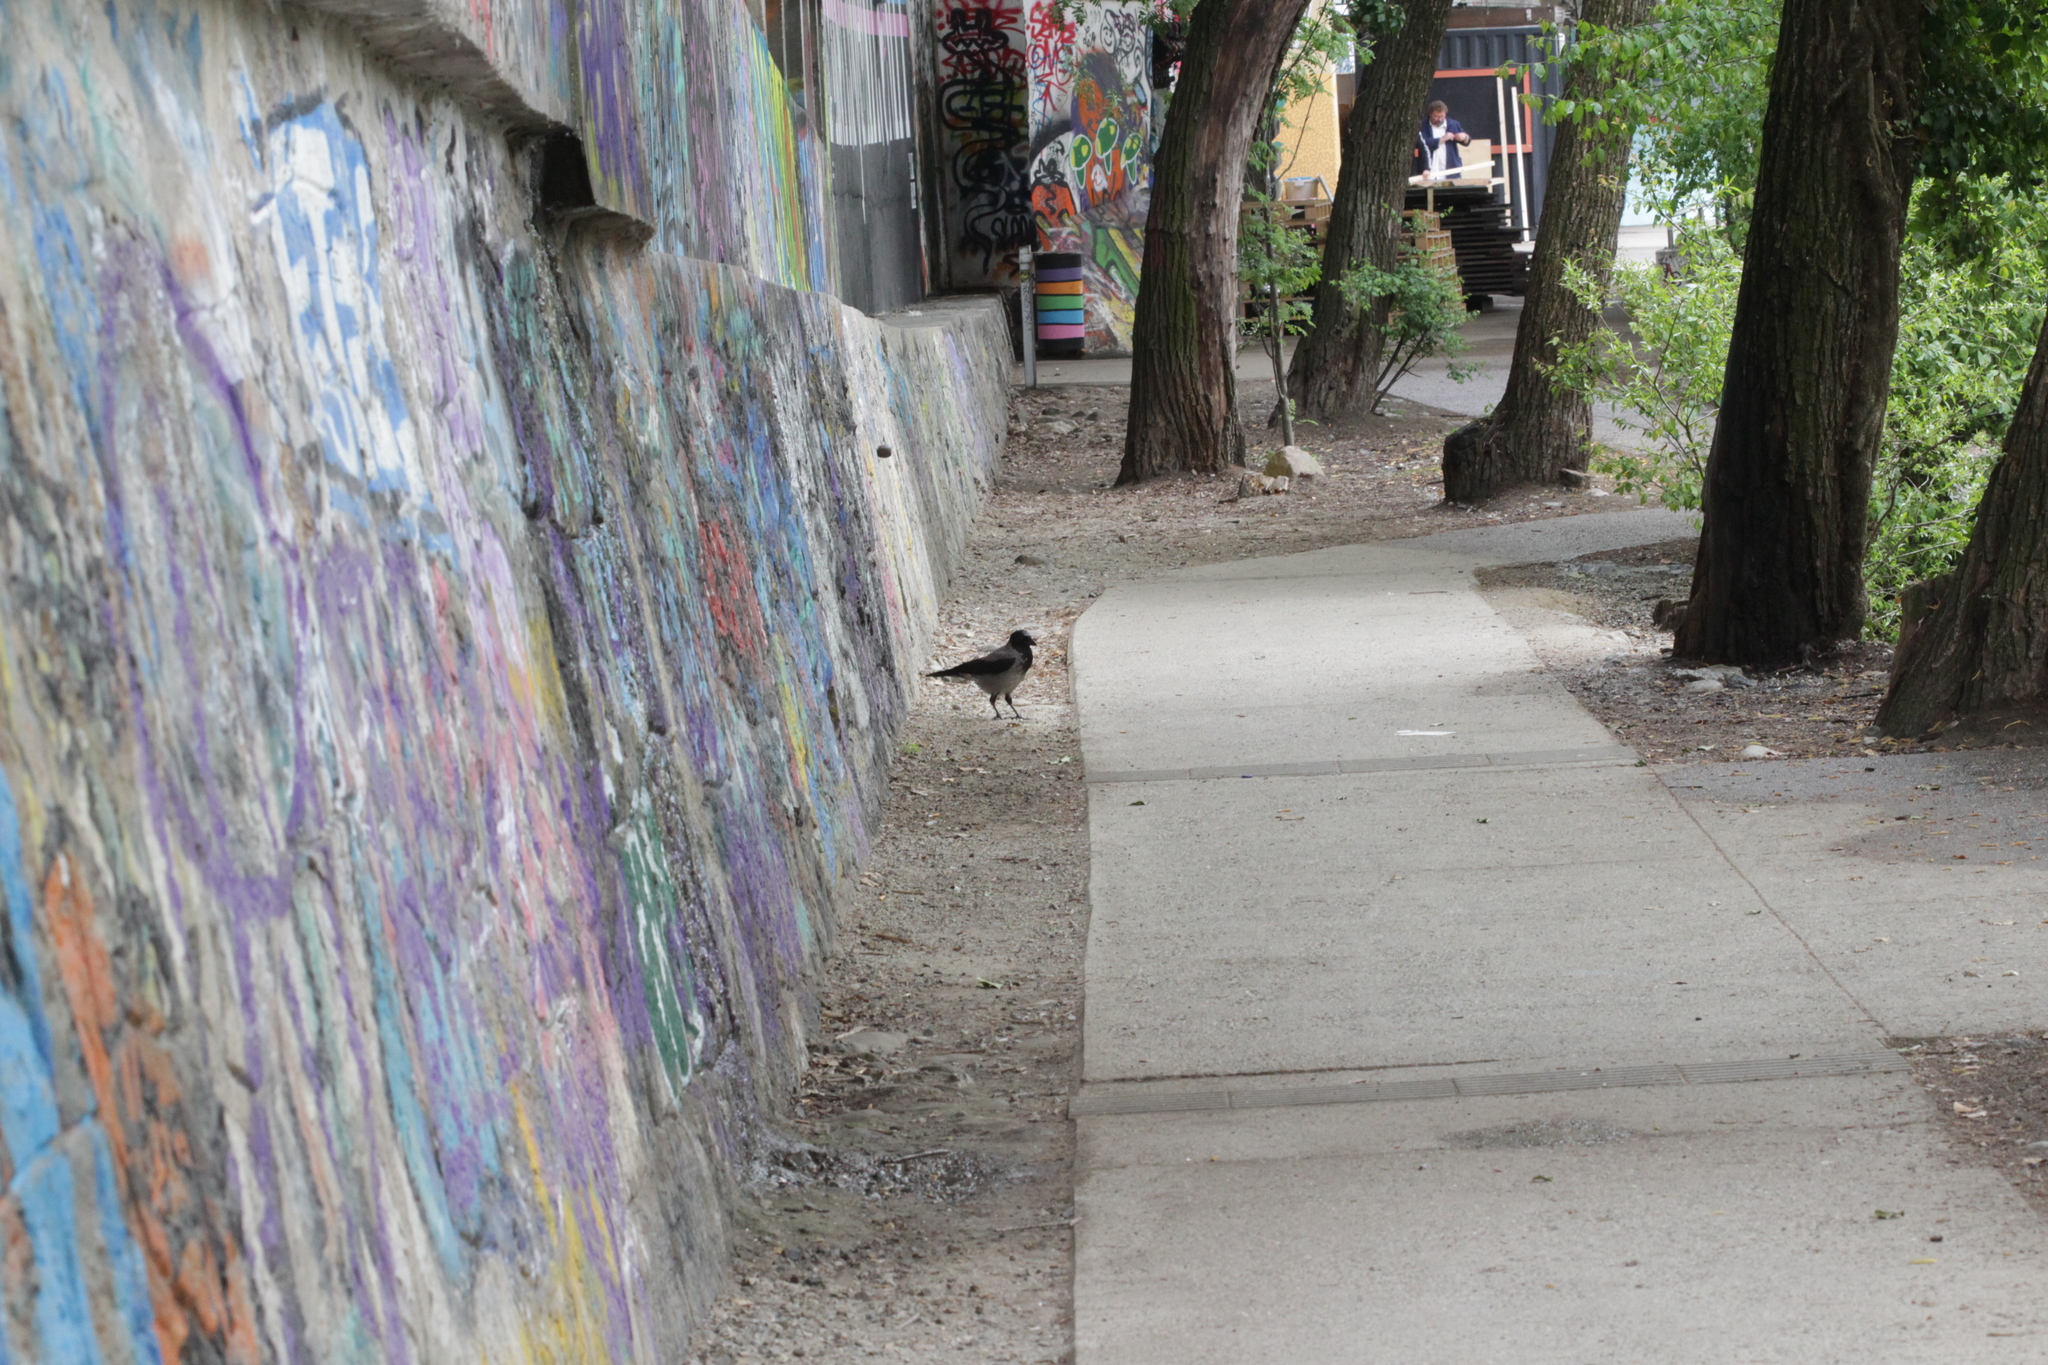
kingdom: Animalia
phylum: Chordata
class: Aves
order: Passeriformes
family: Corvidae
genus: Corvus
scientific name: Corvus cornix
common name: Hooded crow
